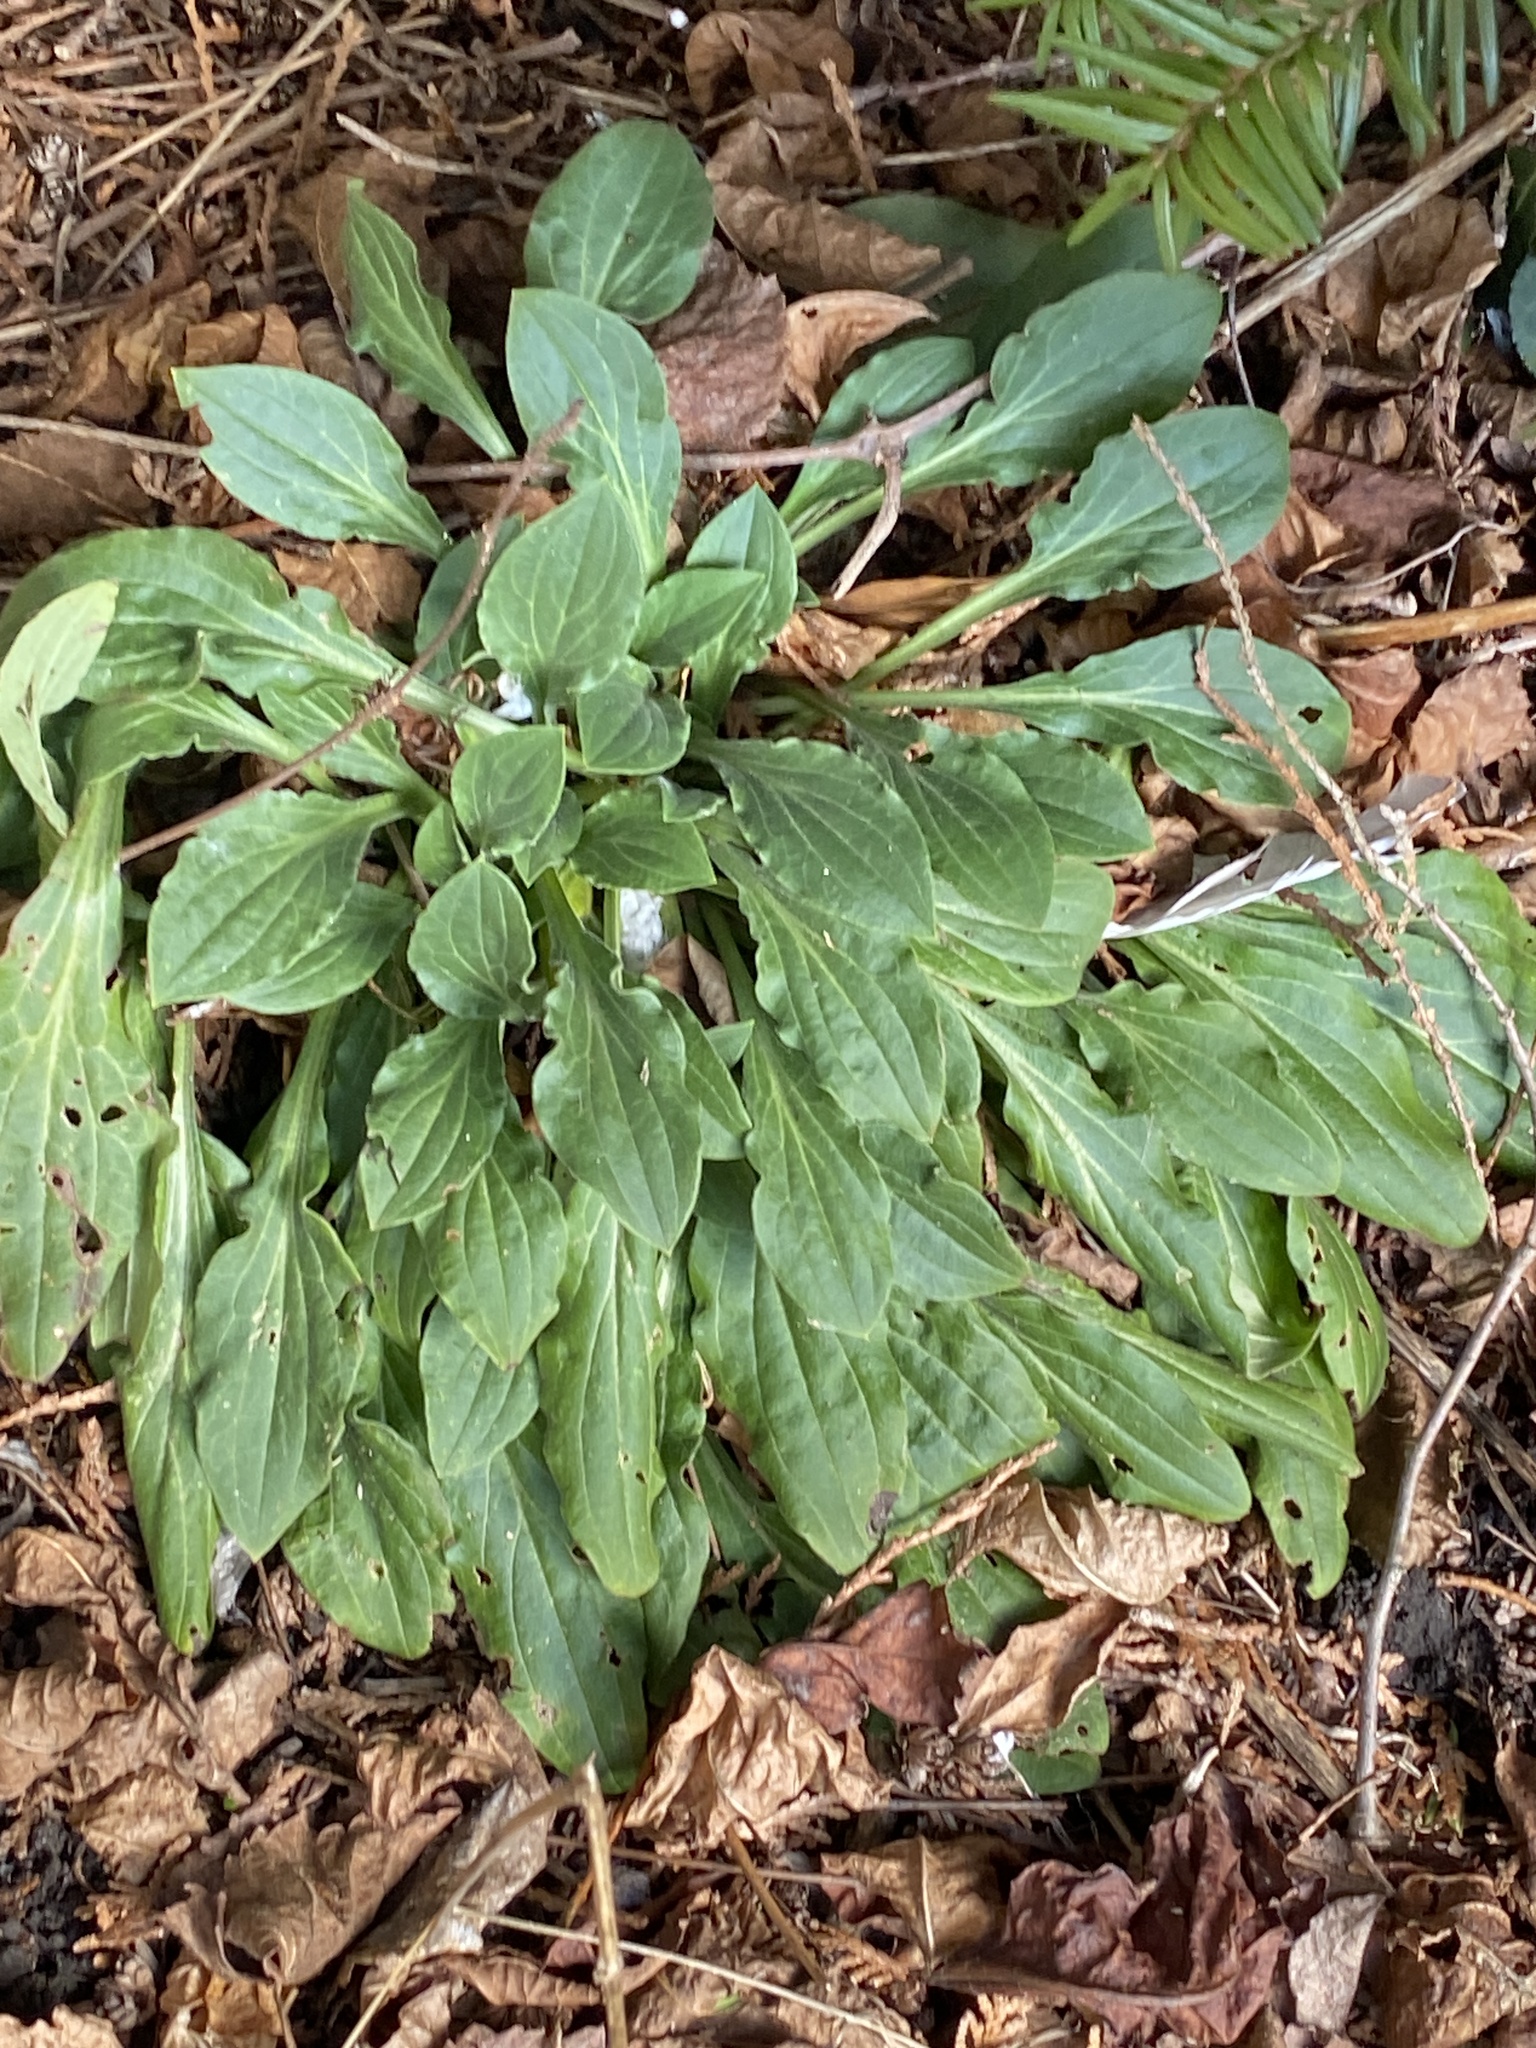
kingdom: Plantae
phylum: Tracheophyta
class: Magnoliopsida
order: Caryophyllales
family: Caryophyllaceae
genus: Silene
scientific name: Silene latifolia
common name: White campion
